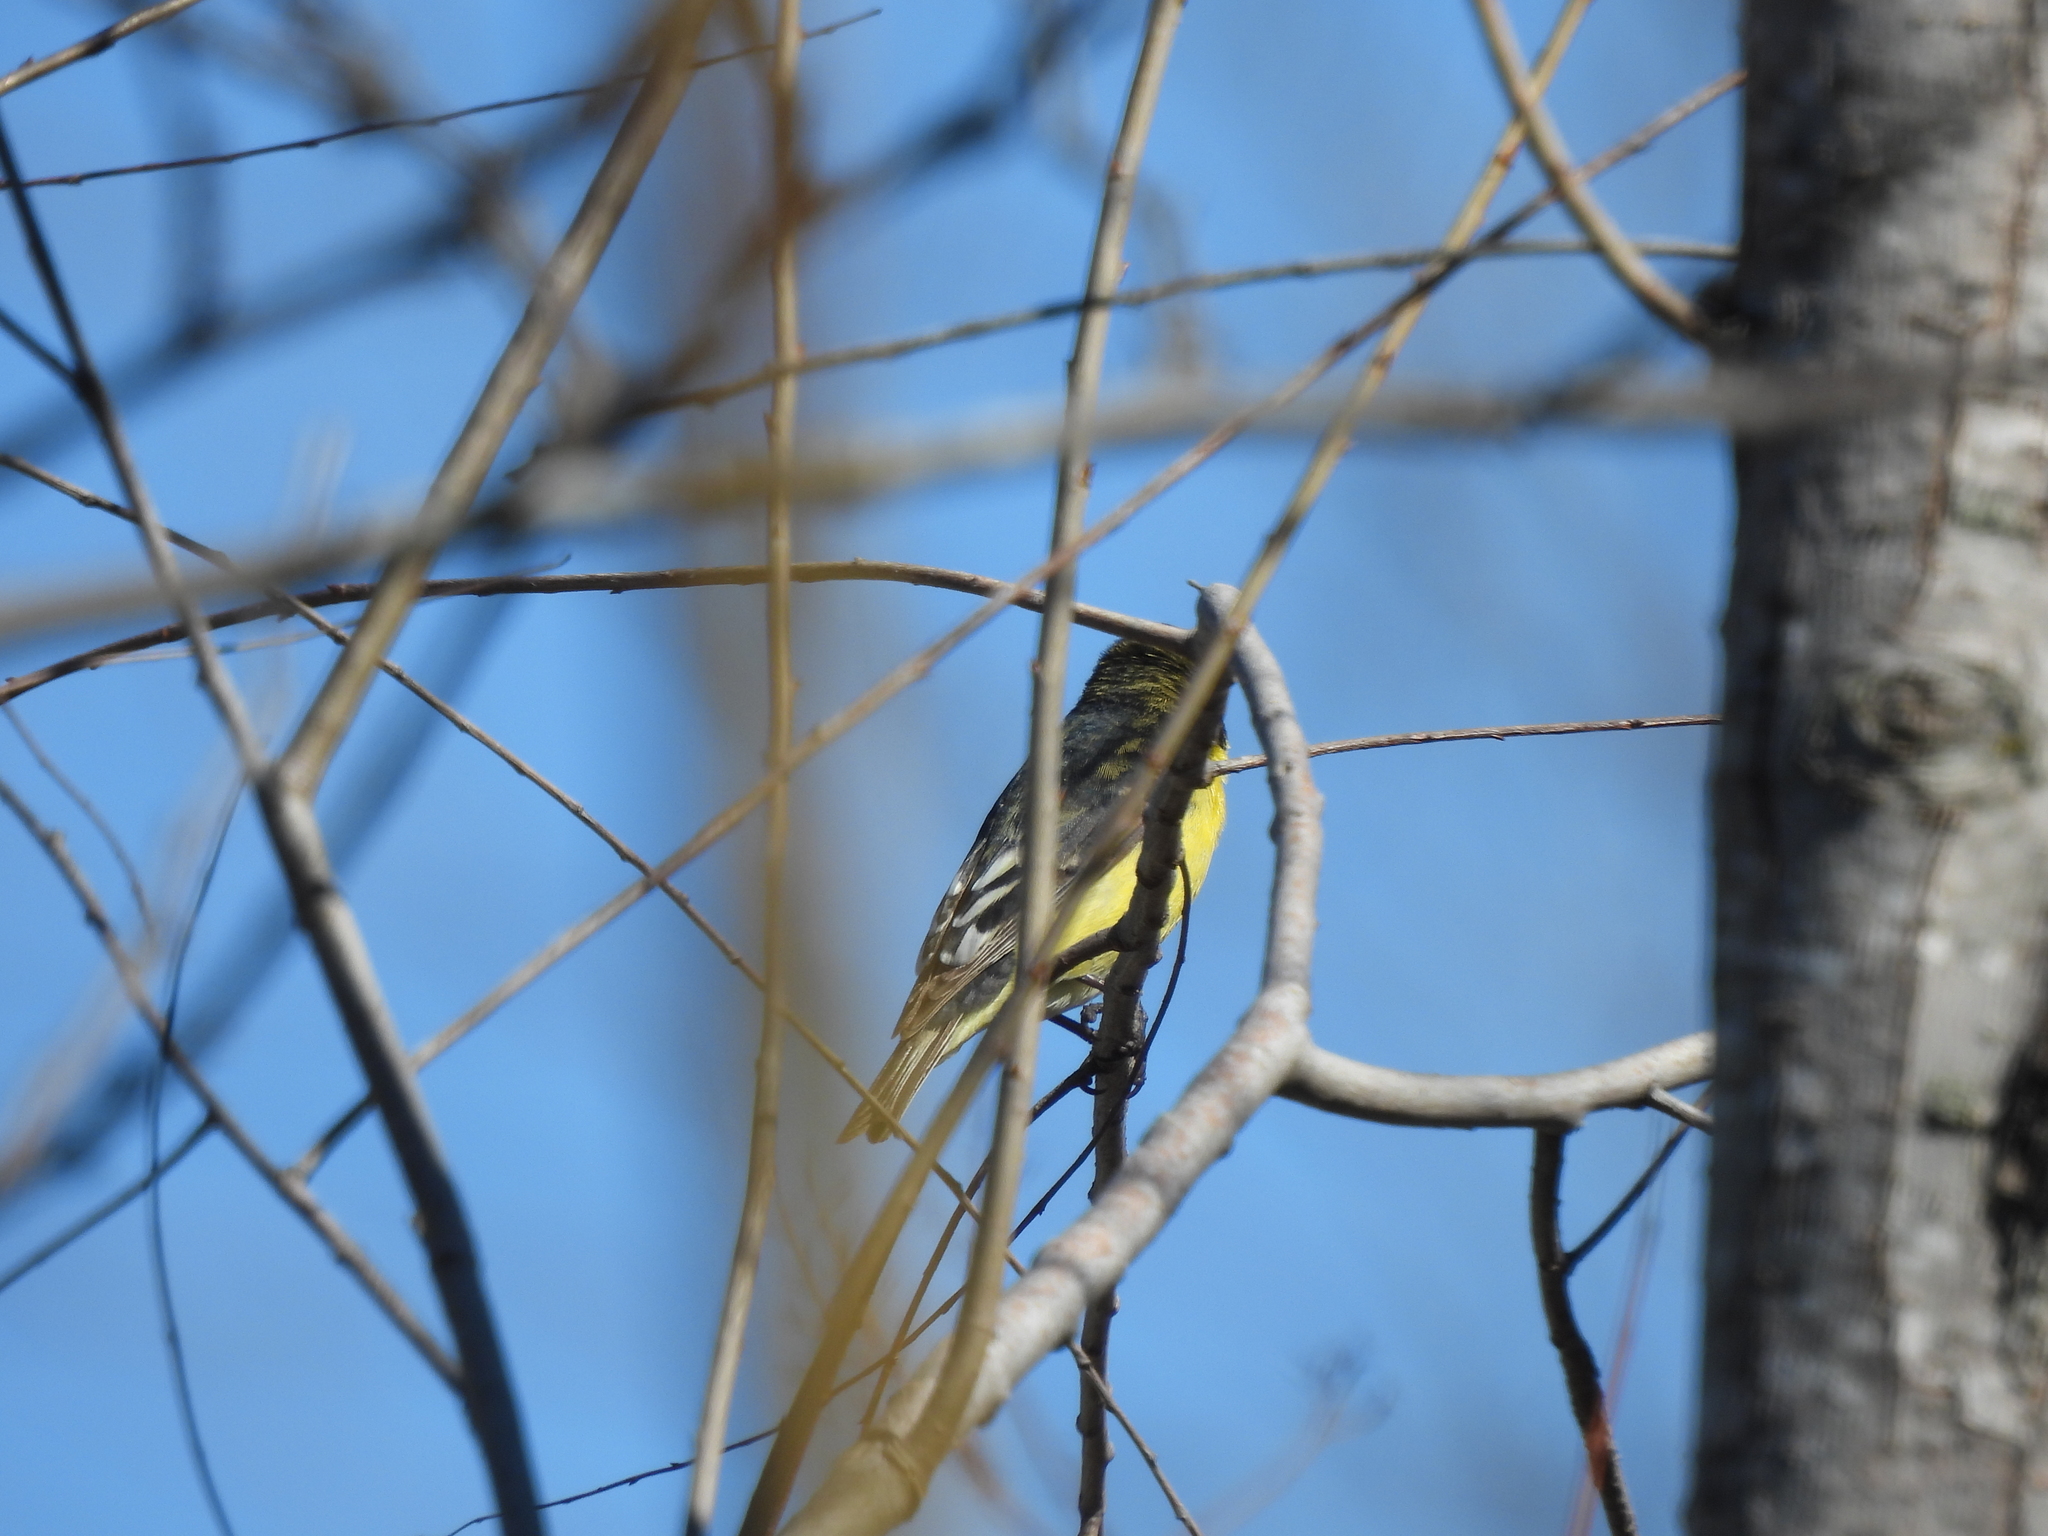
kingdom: Animalia
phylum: Chordata
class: Aves
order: Passeriformes
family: Fringillidae
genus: Spinus
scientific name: Spinus psaltria
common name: Lesser goldfinch
